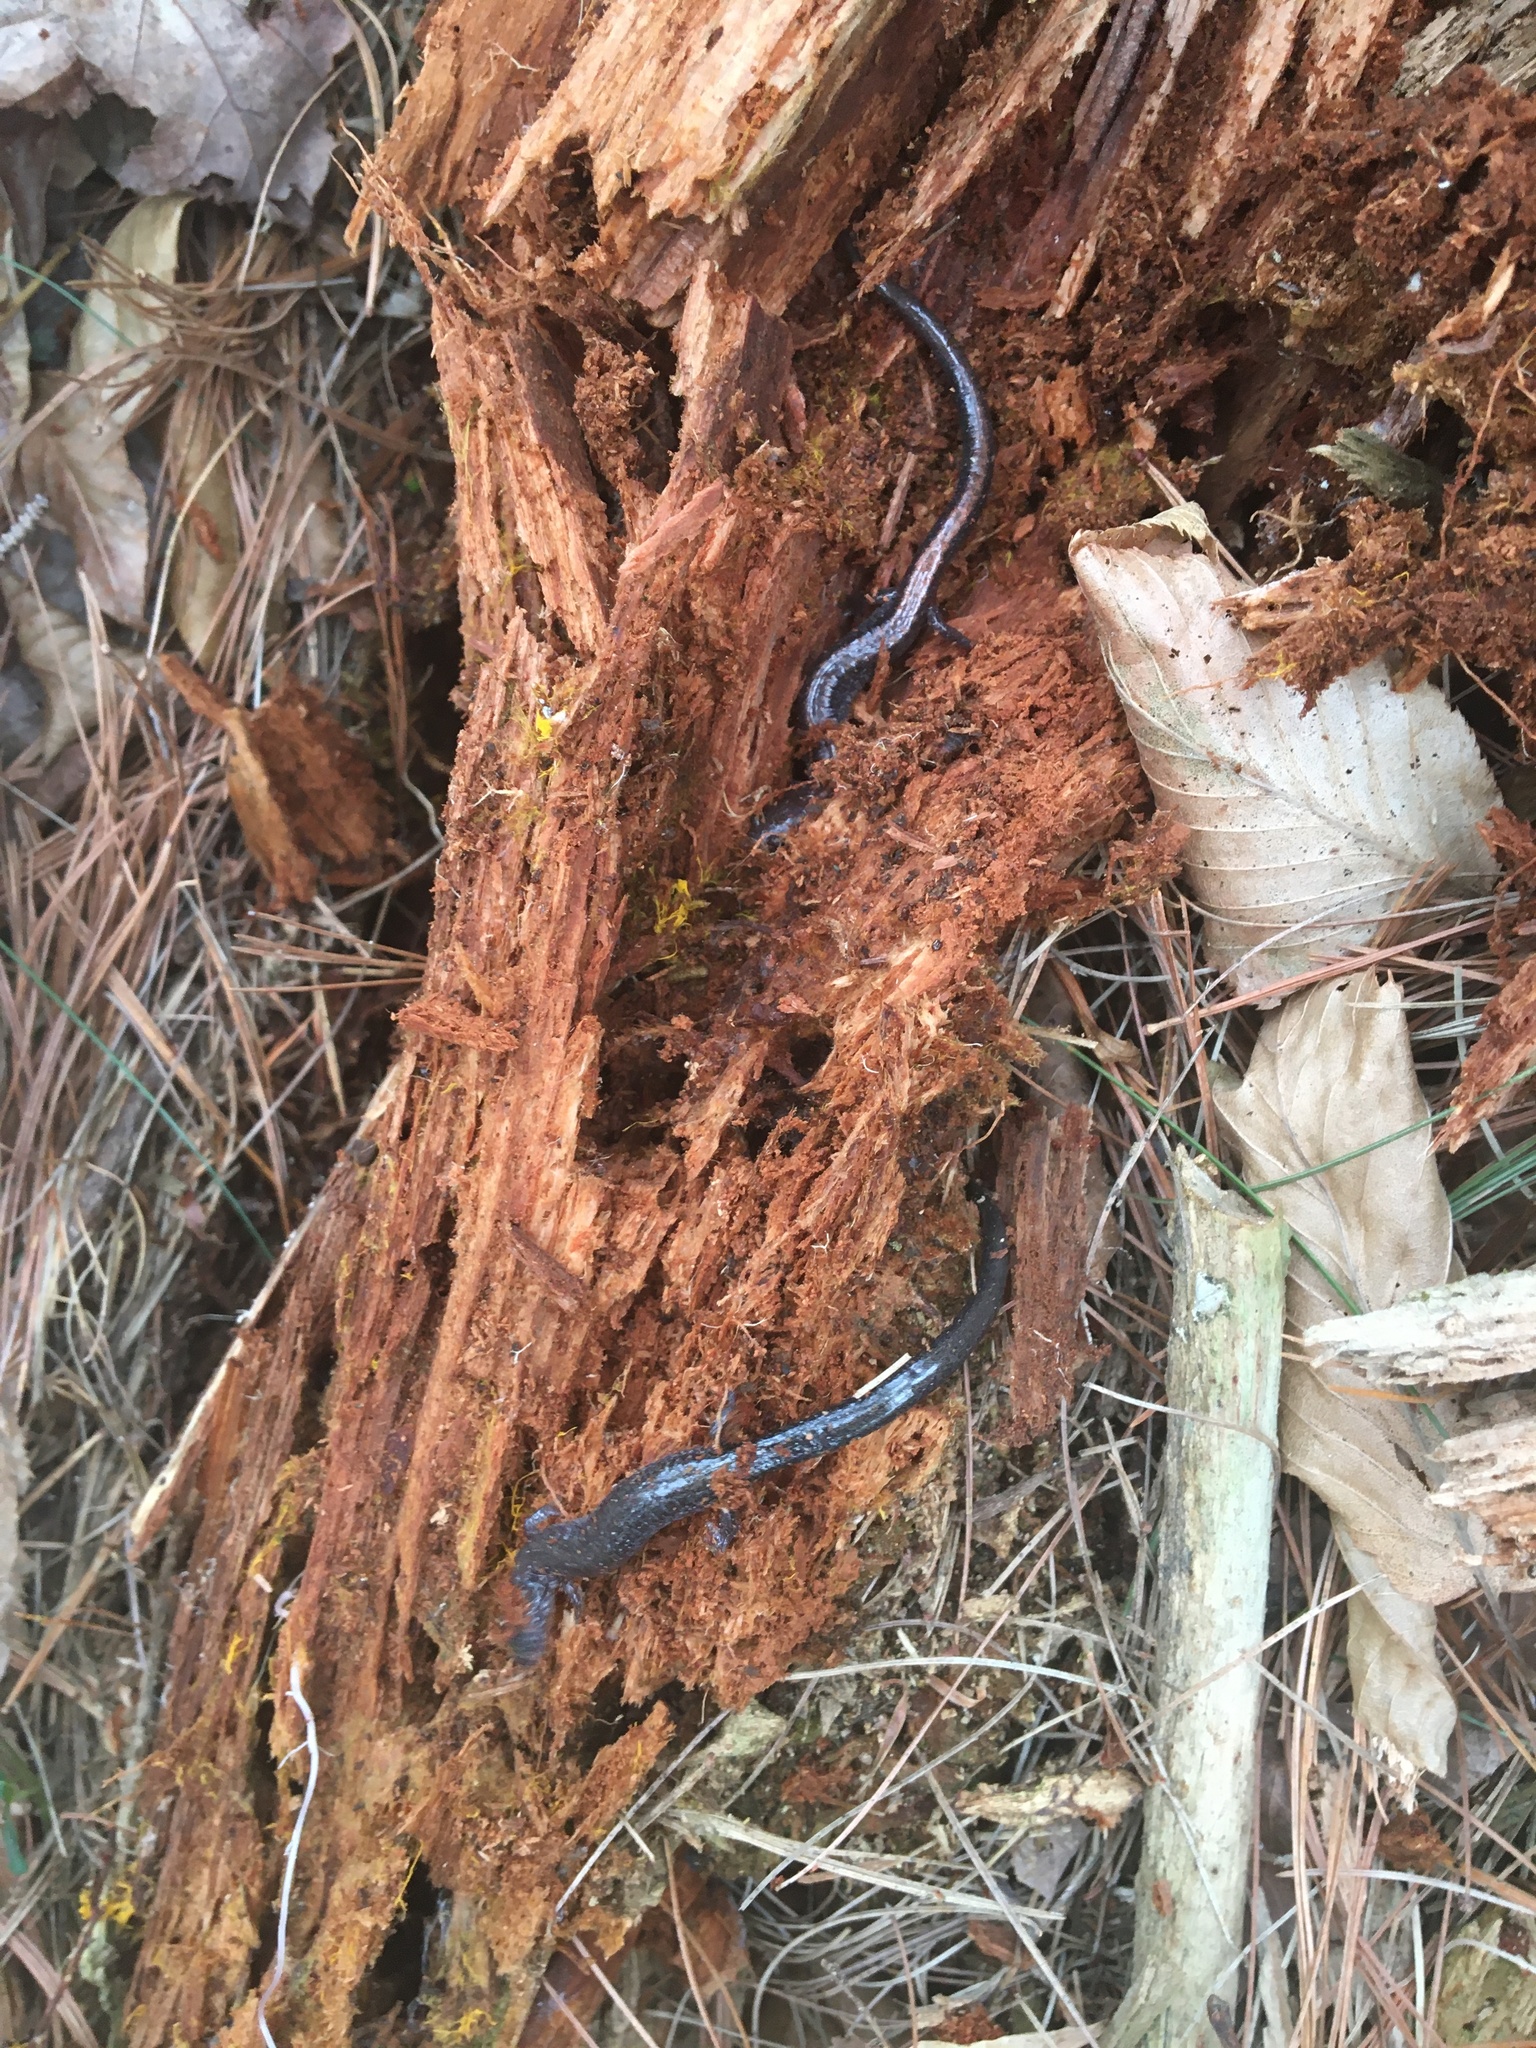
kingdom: Animalia
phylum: Chordata
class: Amphibia
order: Caudata
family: Plethodontidae
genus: Plethodon
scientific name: Plethodon cinereus
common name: Redback salamander
